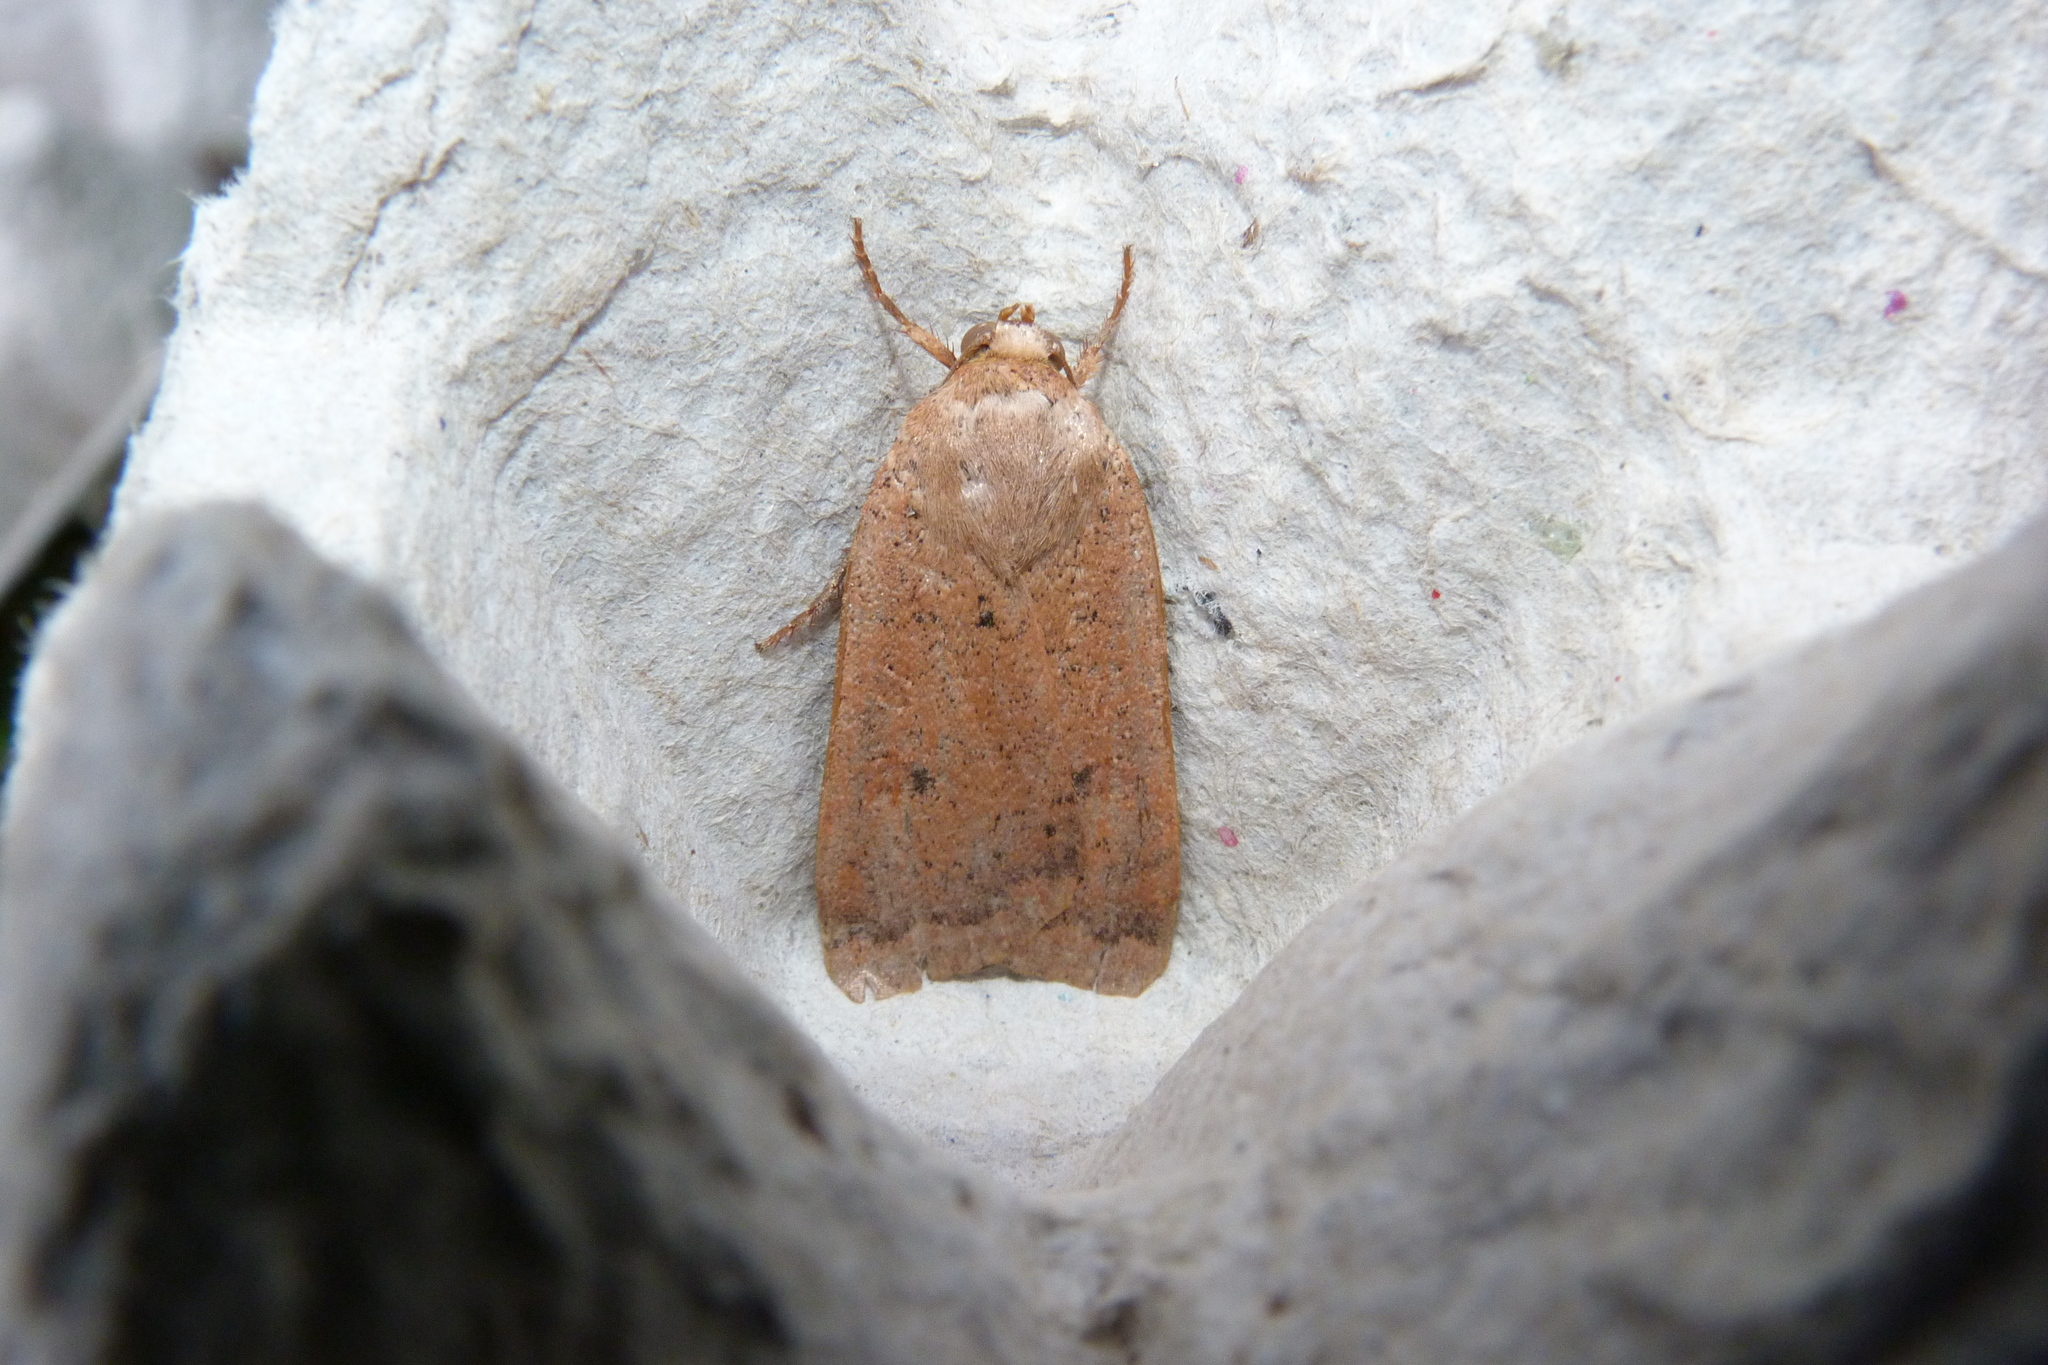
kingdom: Animalia
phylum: Arthropoda
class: Insecta
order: Lepidoptera
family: Noctuidae
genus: Noctua
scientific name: Noctua comes
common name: Lesser yellow underwing
